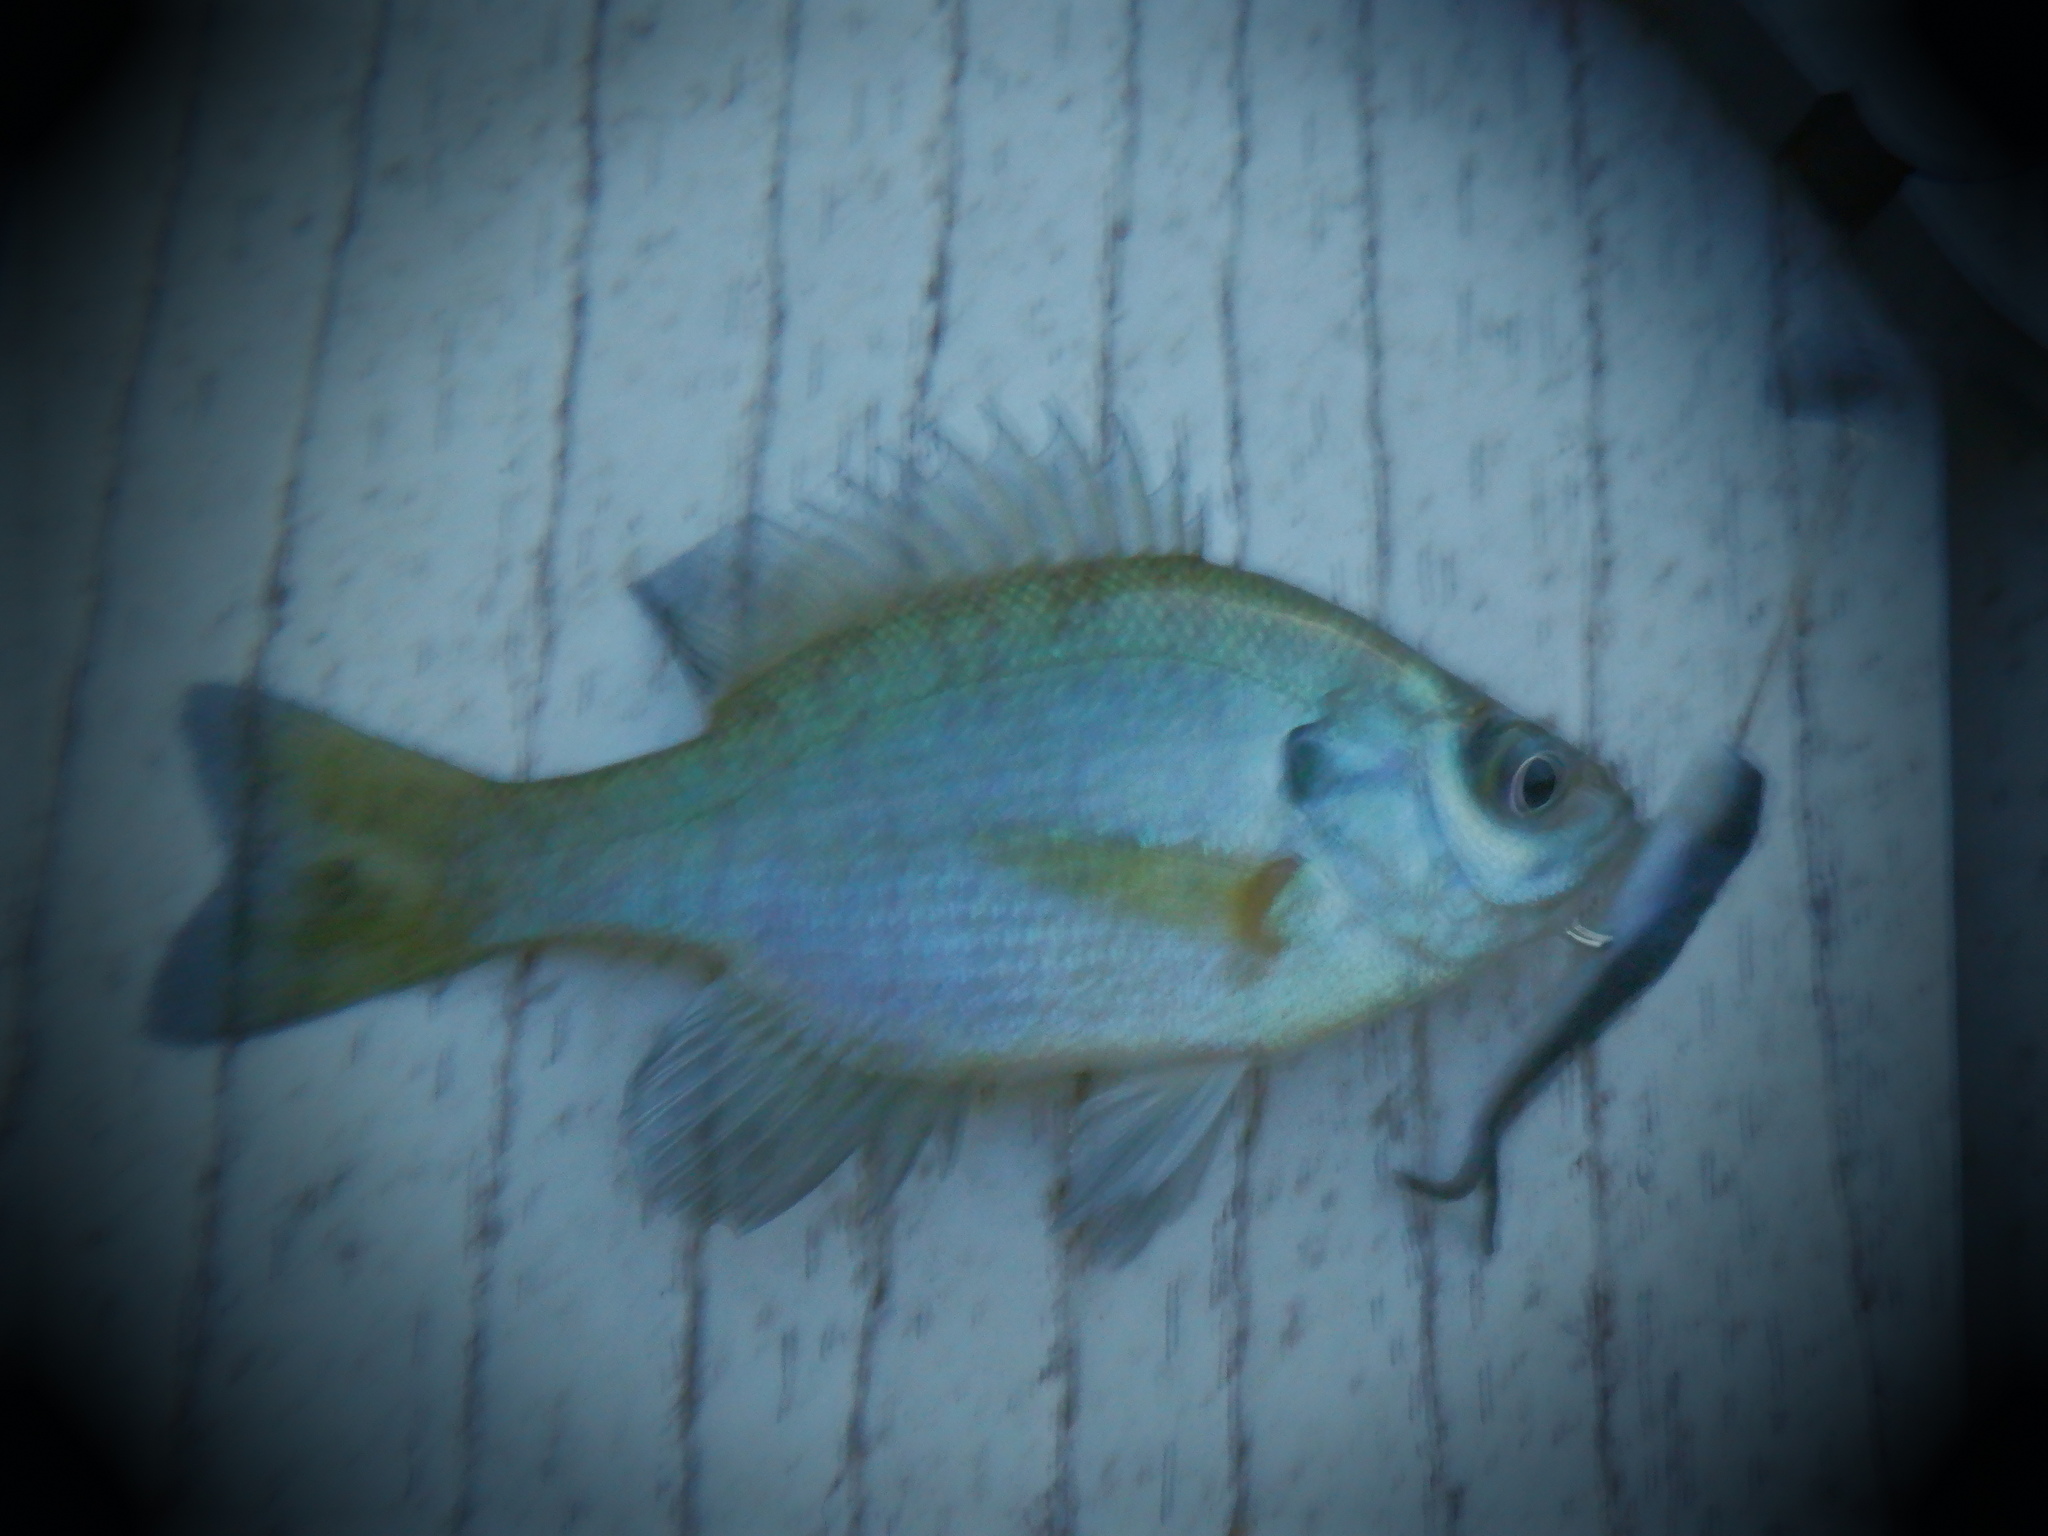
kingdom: Animalia
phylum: Chordata
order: Perciformes
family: Centrarchidae
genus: Lepomis
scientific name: Lepomis macrochirus
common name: Bluegill
